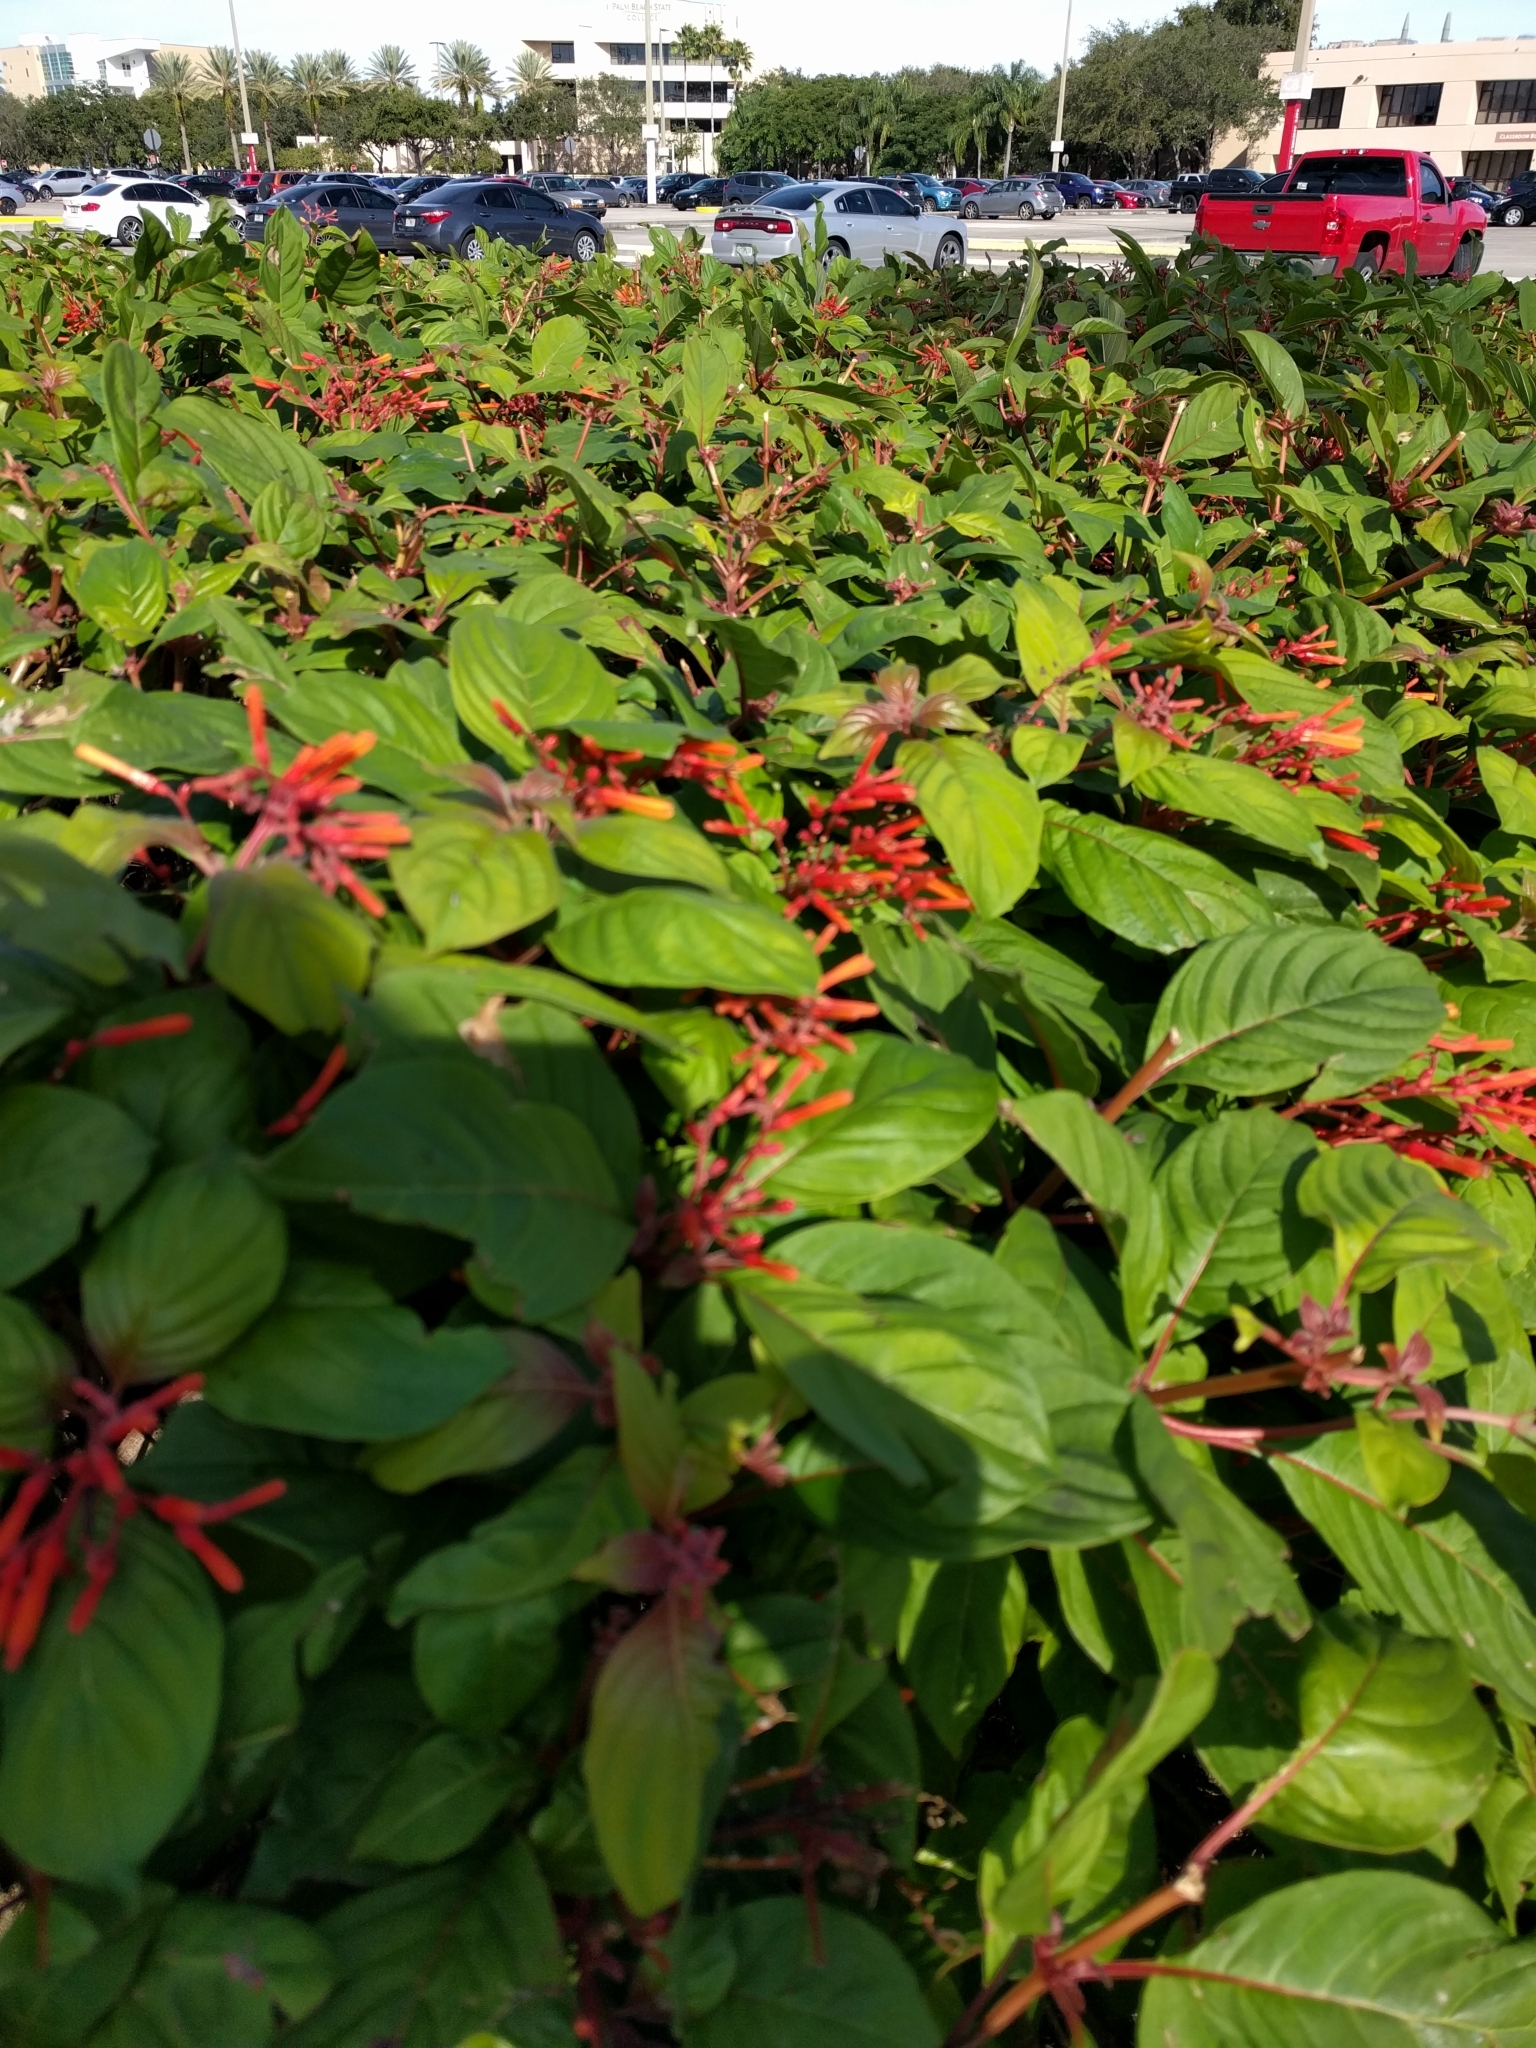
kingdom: Plantae
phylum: Tracheophyta
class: Magnoliopsida
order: Gentianales
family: Rubiaceae
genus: Hamelia
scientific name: Hamelia patens
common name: Redhead
